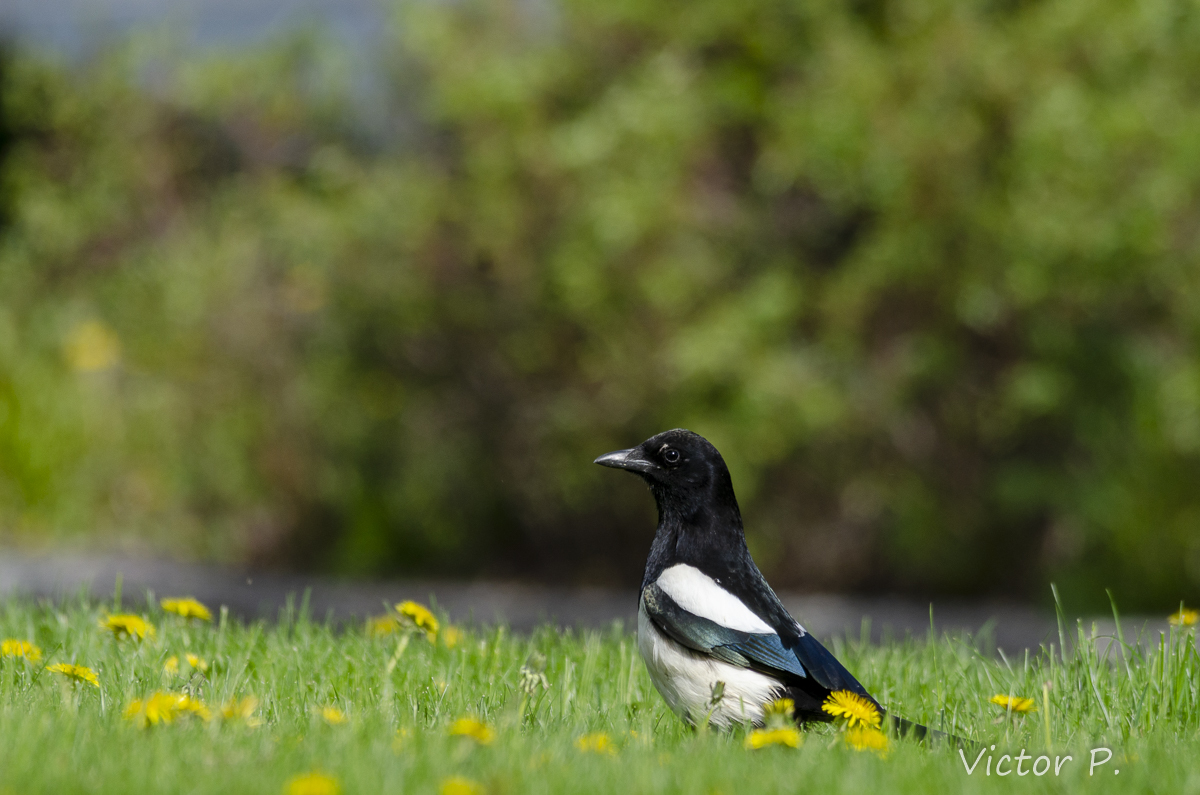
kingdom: Animalia
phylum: Chordata
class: Aves
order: Passeriformes
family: Corvidae
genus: Pica
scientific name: Pica pica
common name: Eurasian magpie
